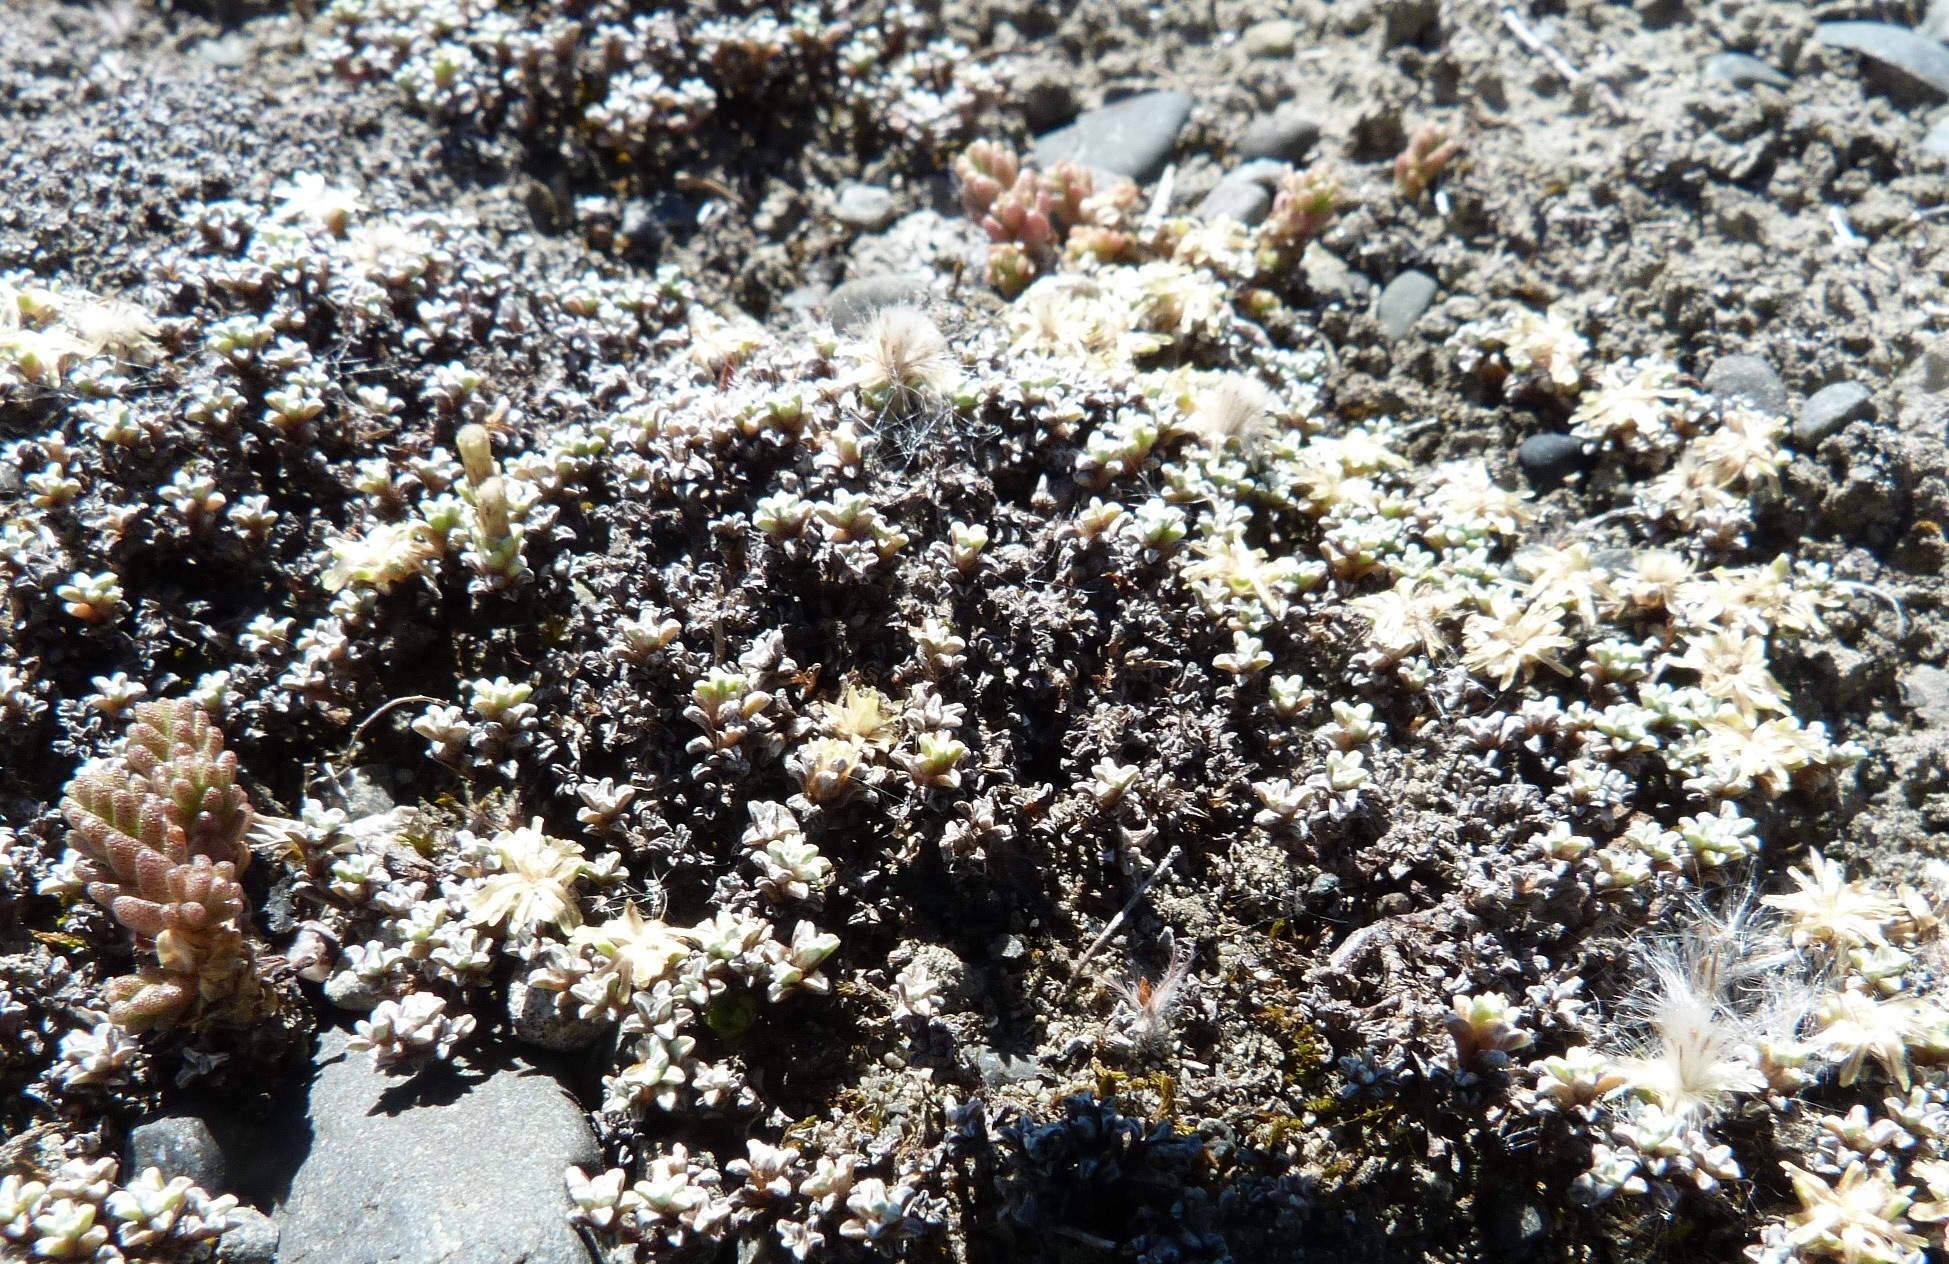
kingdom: Plantae
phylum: Tracheophyta
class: Magnoliopsida
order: Asterales
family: Asteraceae
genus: Raoulia
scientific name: Raoulia hookeri
